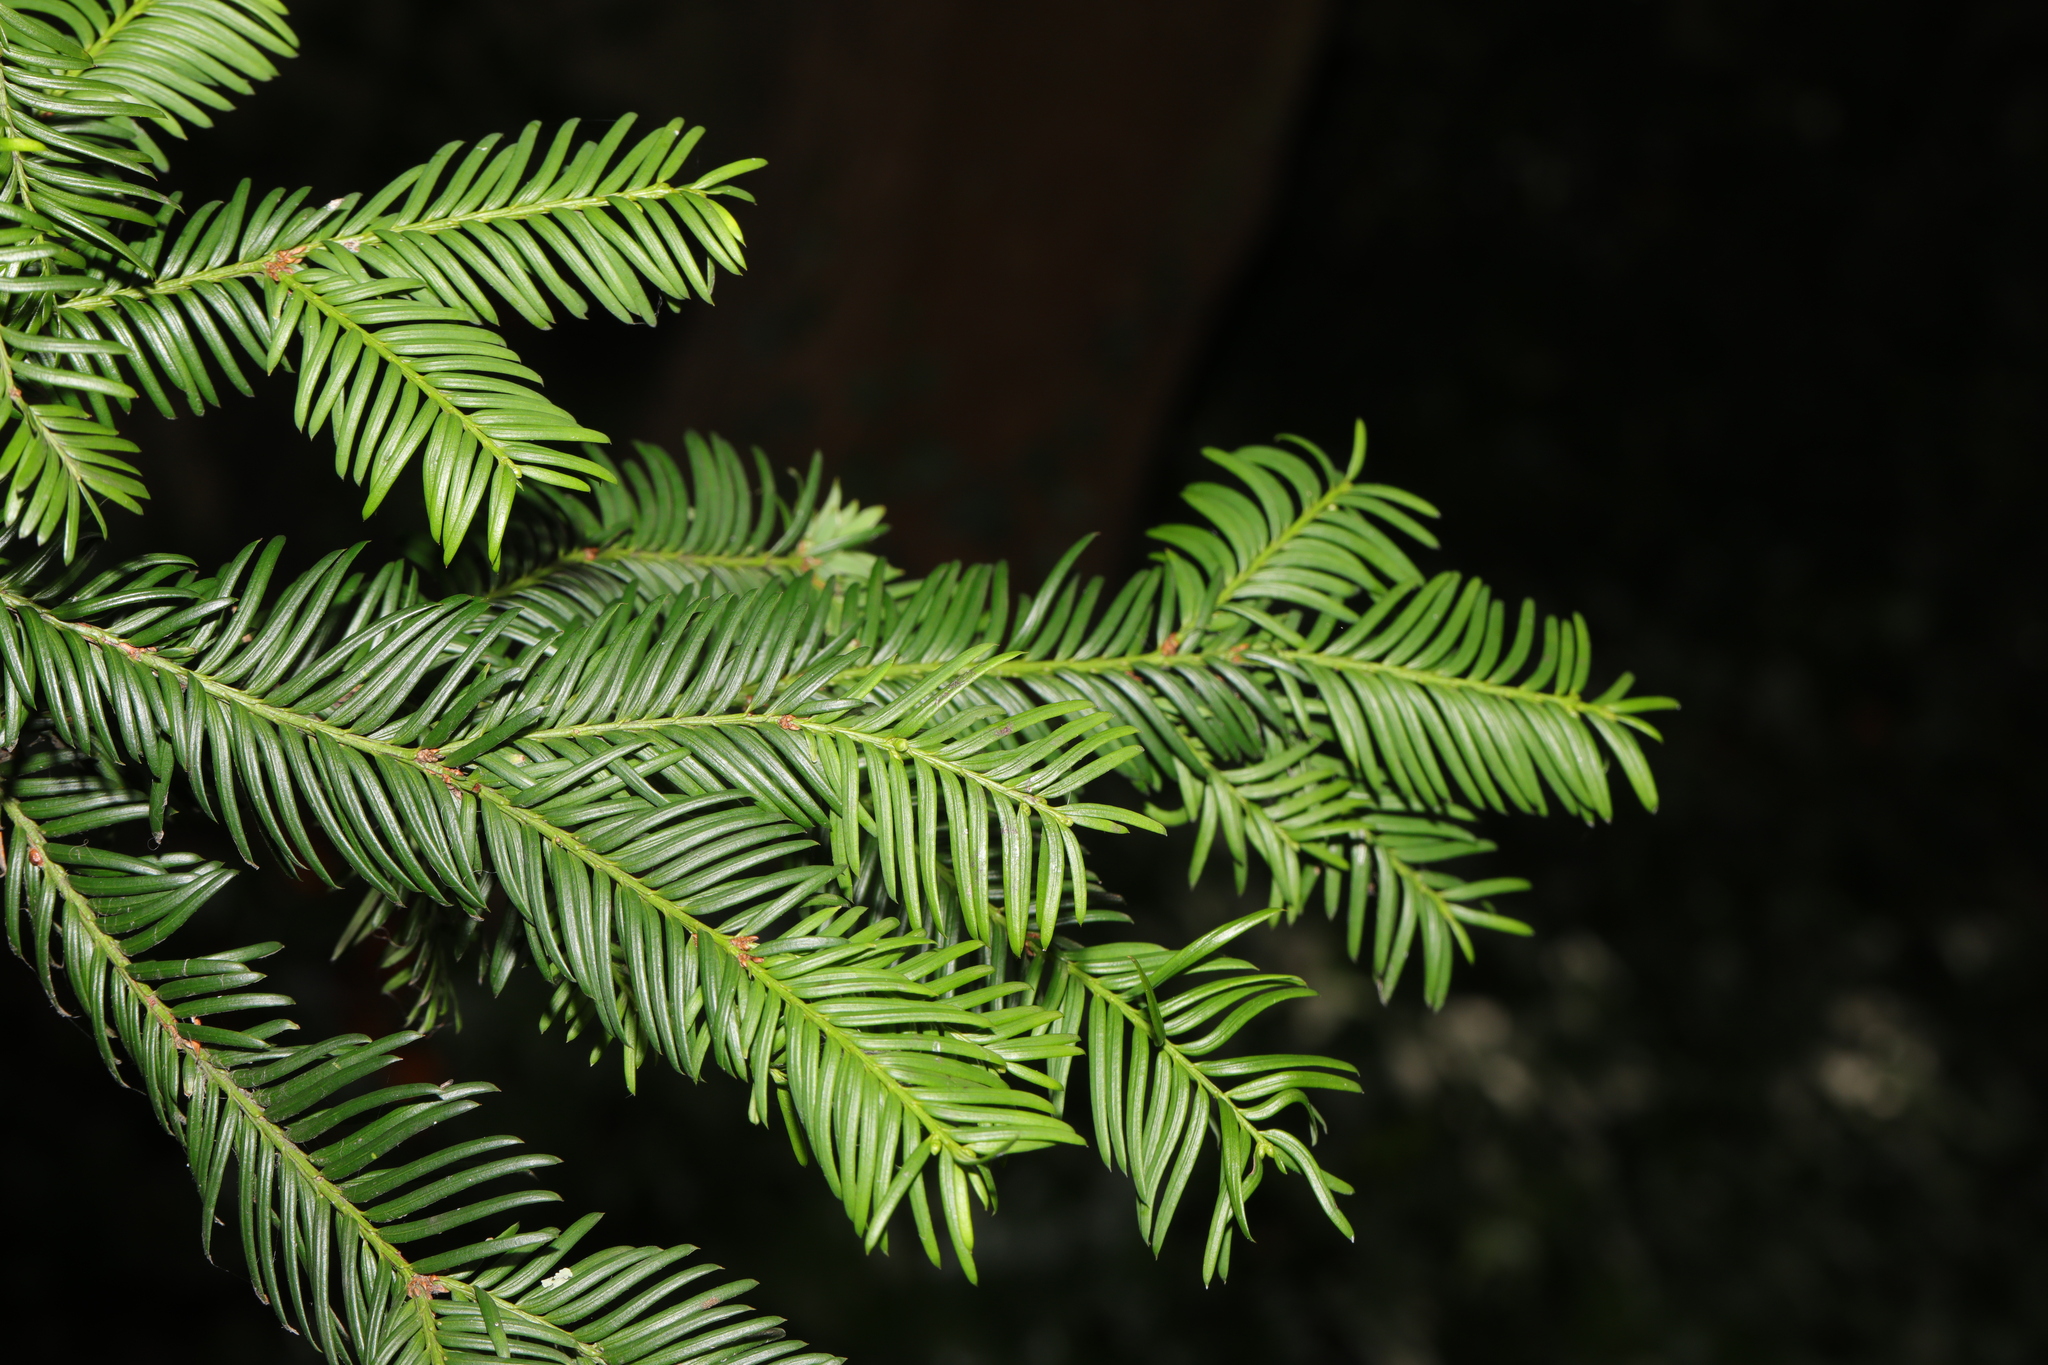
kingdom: Plantae
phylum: Tracheophyta
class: Pinopsida
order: Pinales
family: Taxaceae
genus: Taxus
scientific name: Taxus baccata
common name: Yew
